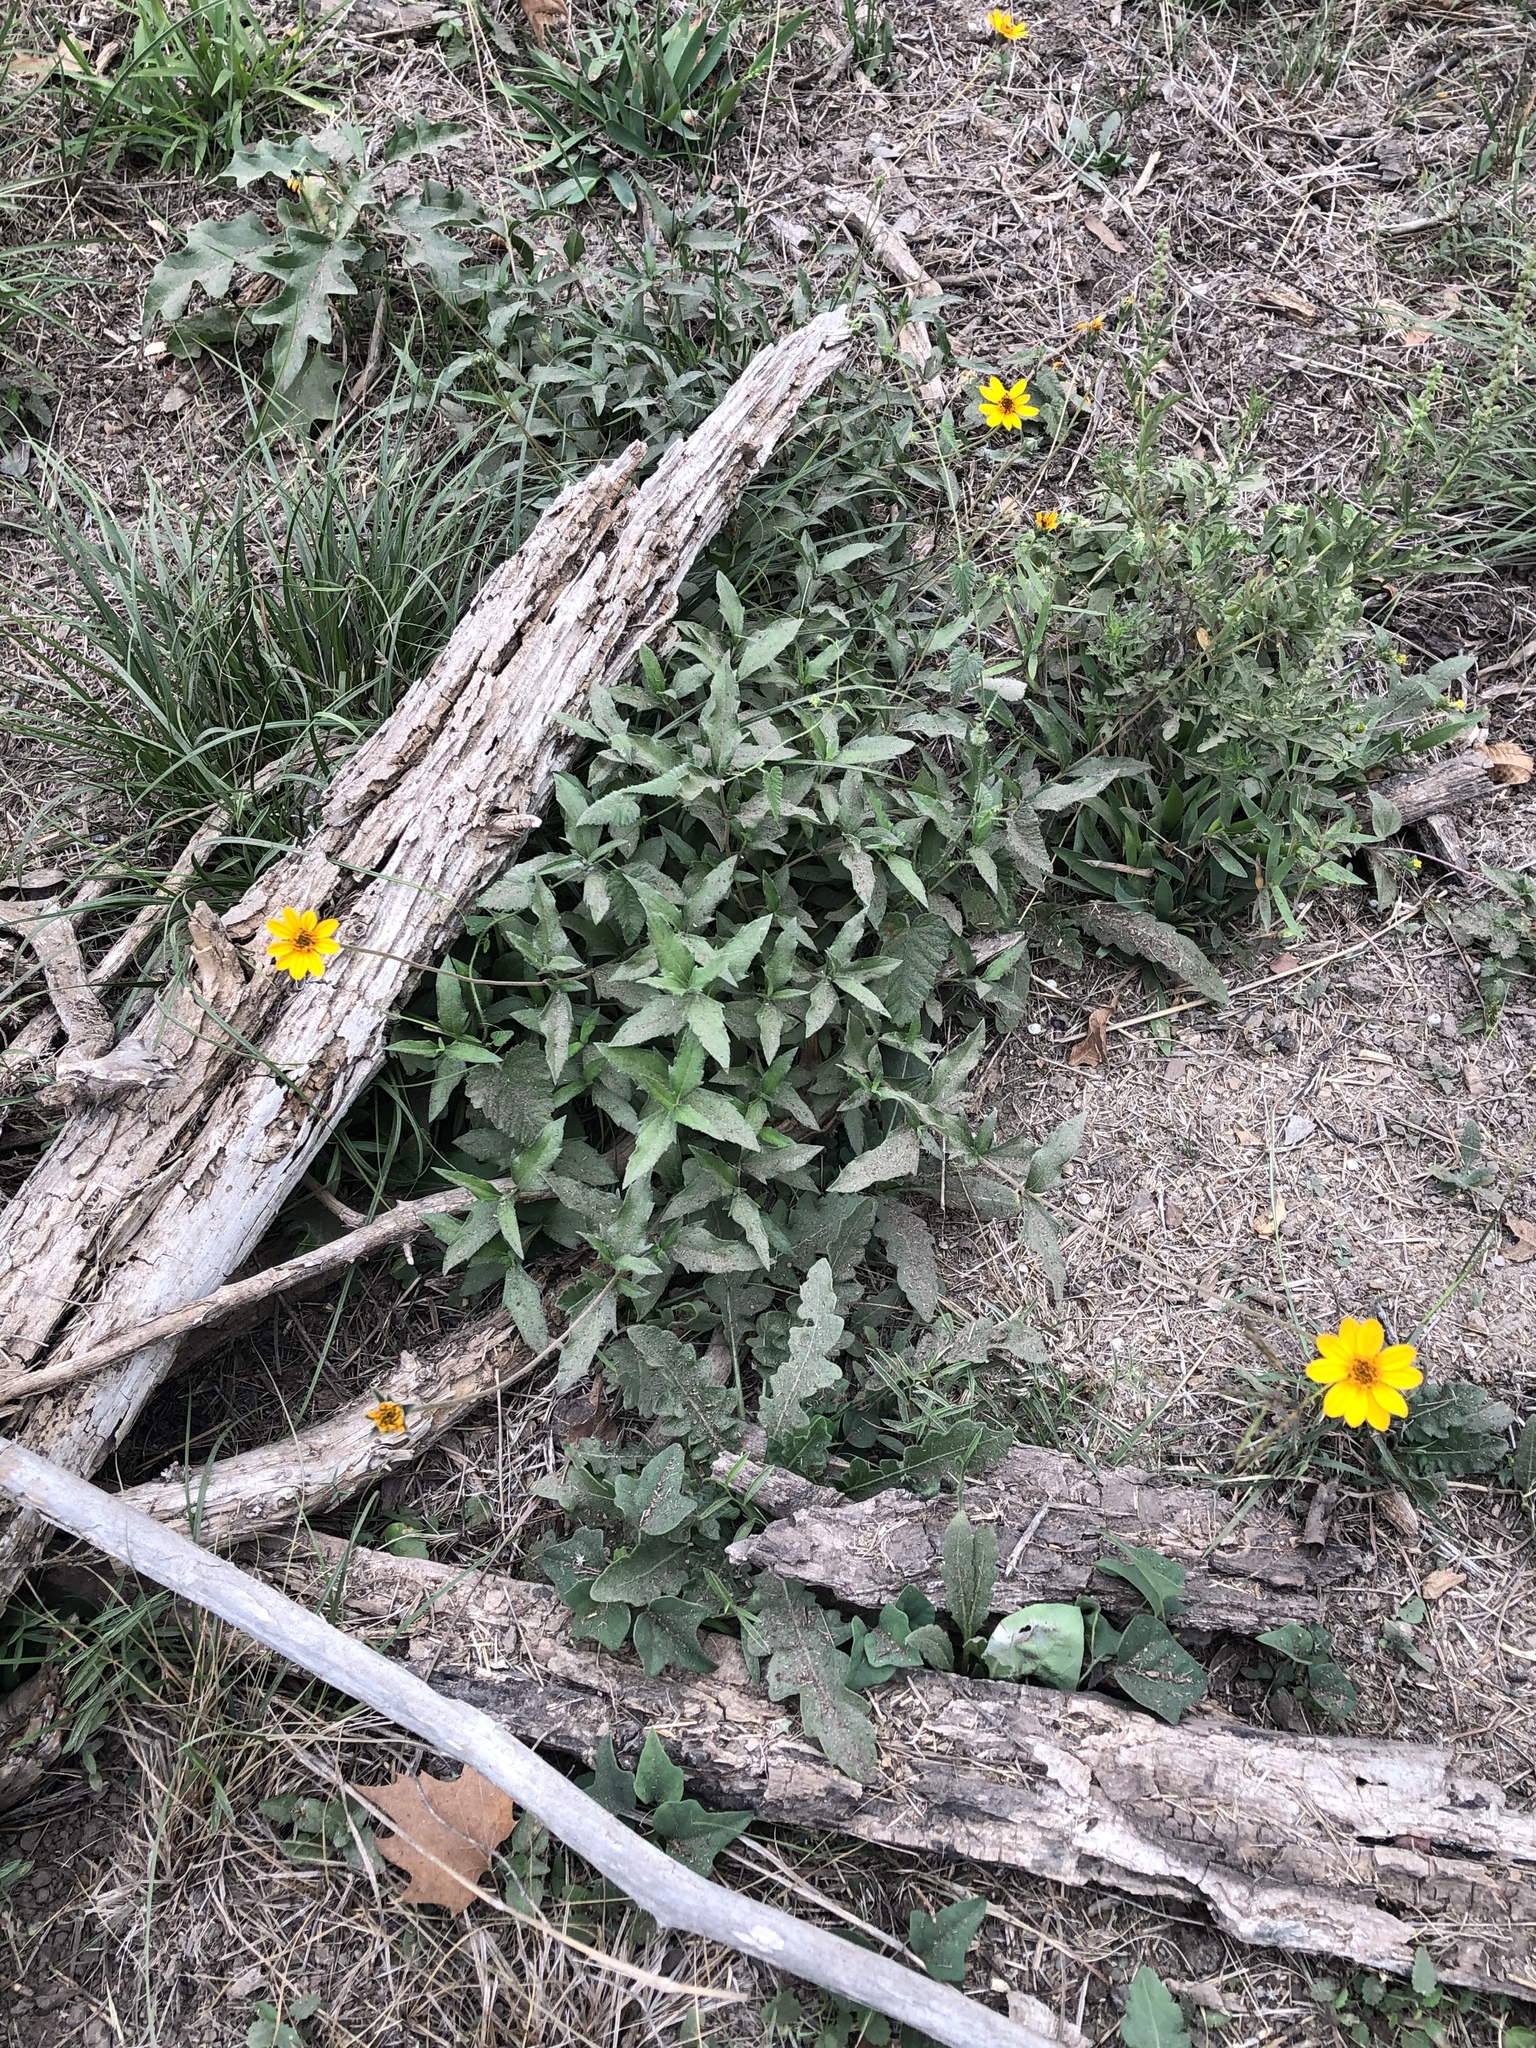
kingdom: Plantae
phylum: Tracheophyta
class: Magnoliopsida
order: Asterales
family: Asteraceae
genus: Wedelia
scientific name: Wedelia acapulcensis
